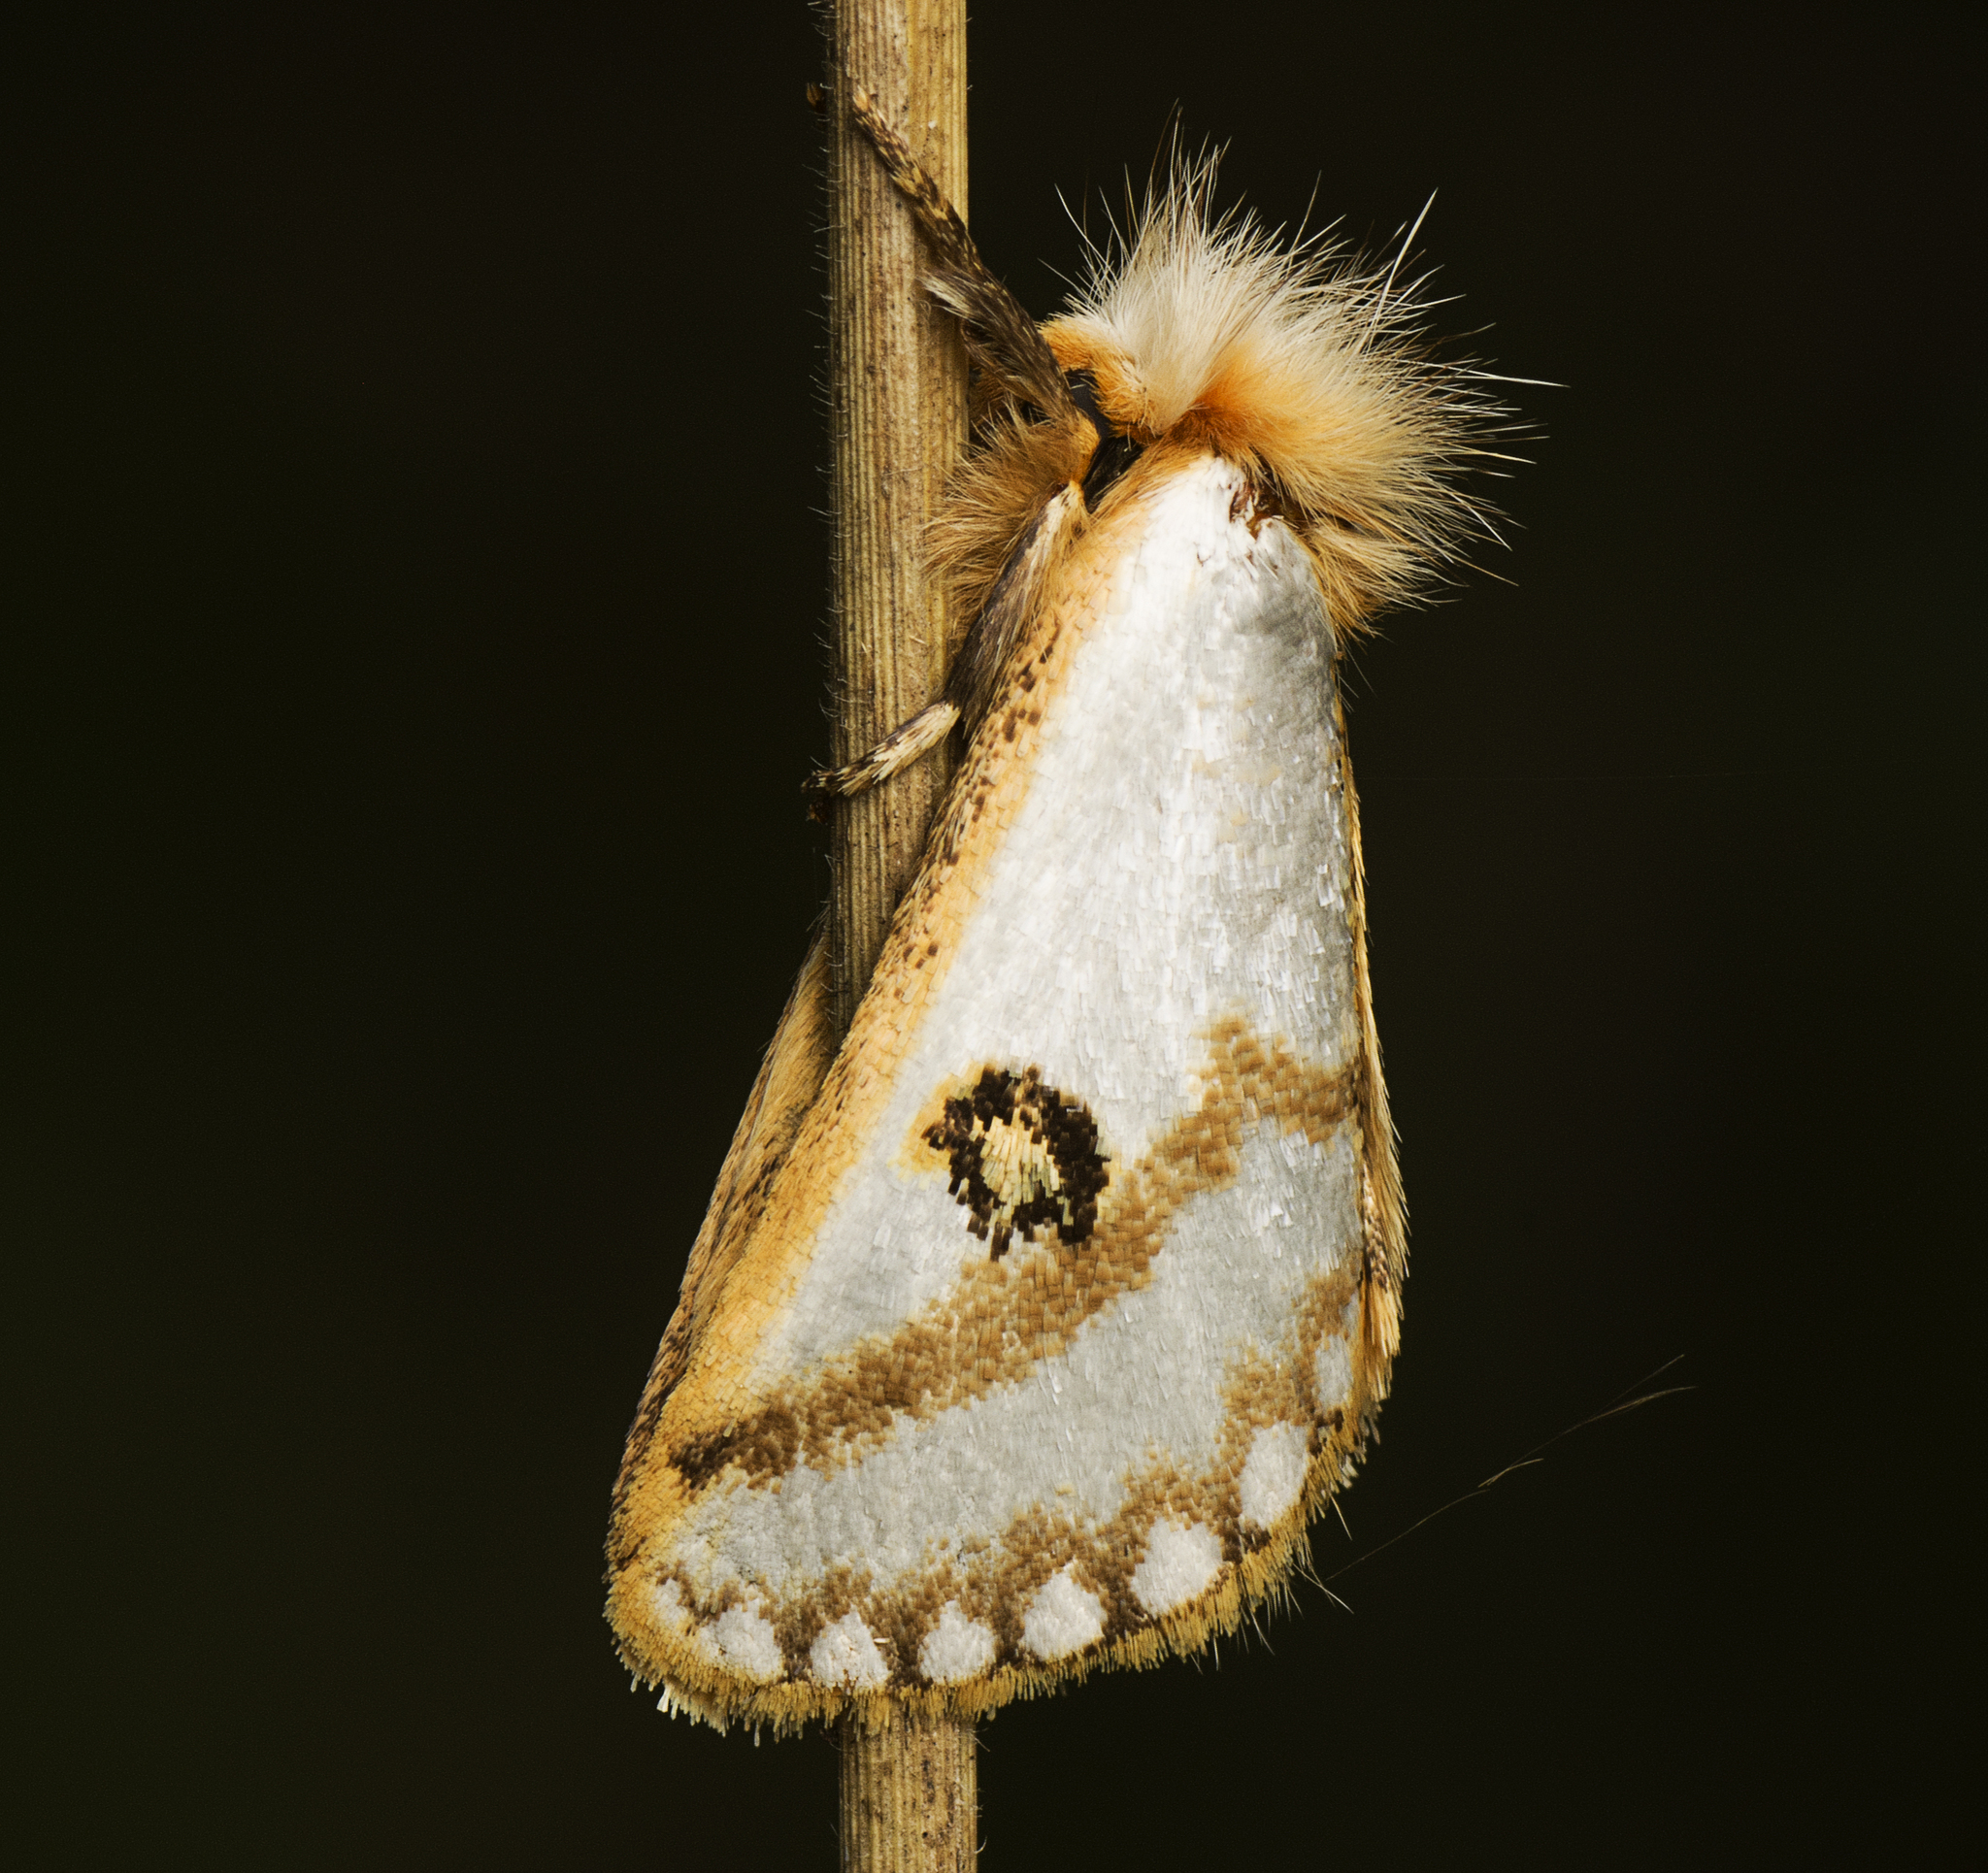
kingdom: Animalia
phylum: Arthropoda
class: Insecta
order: Lepidoptera
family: Notodontidae
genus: Epicoma
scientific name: Epicoma melanosticta
